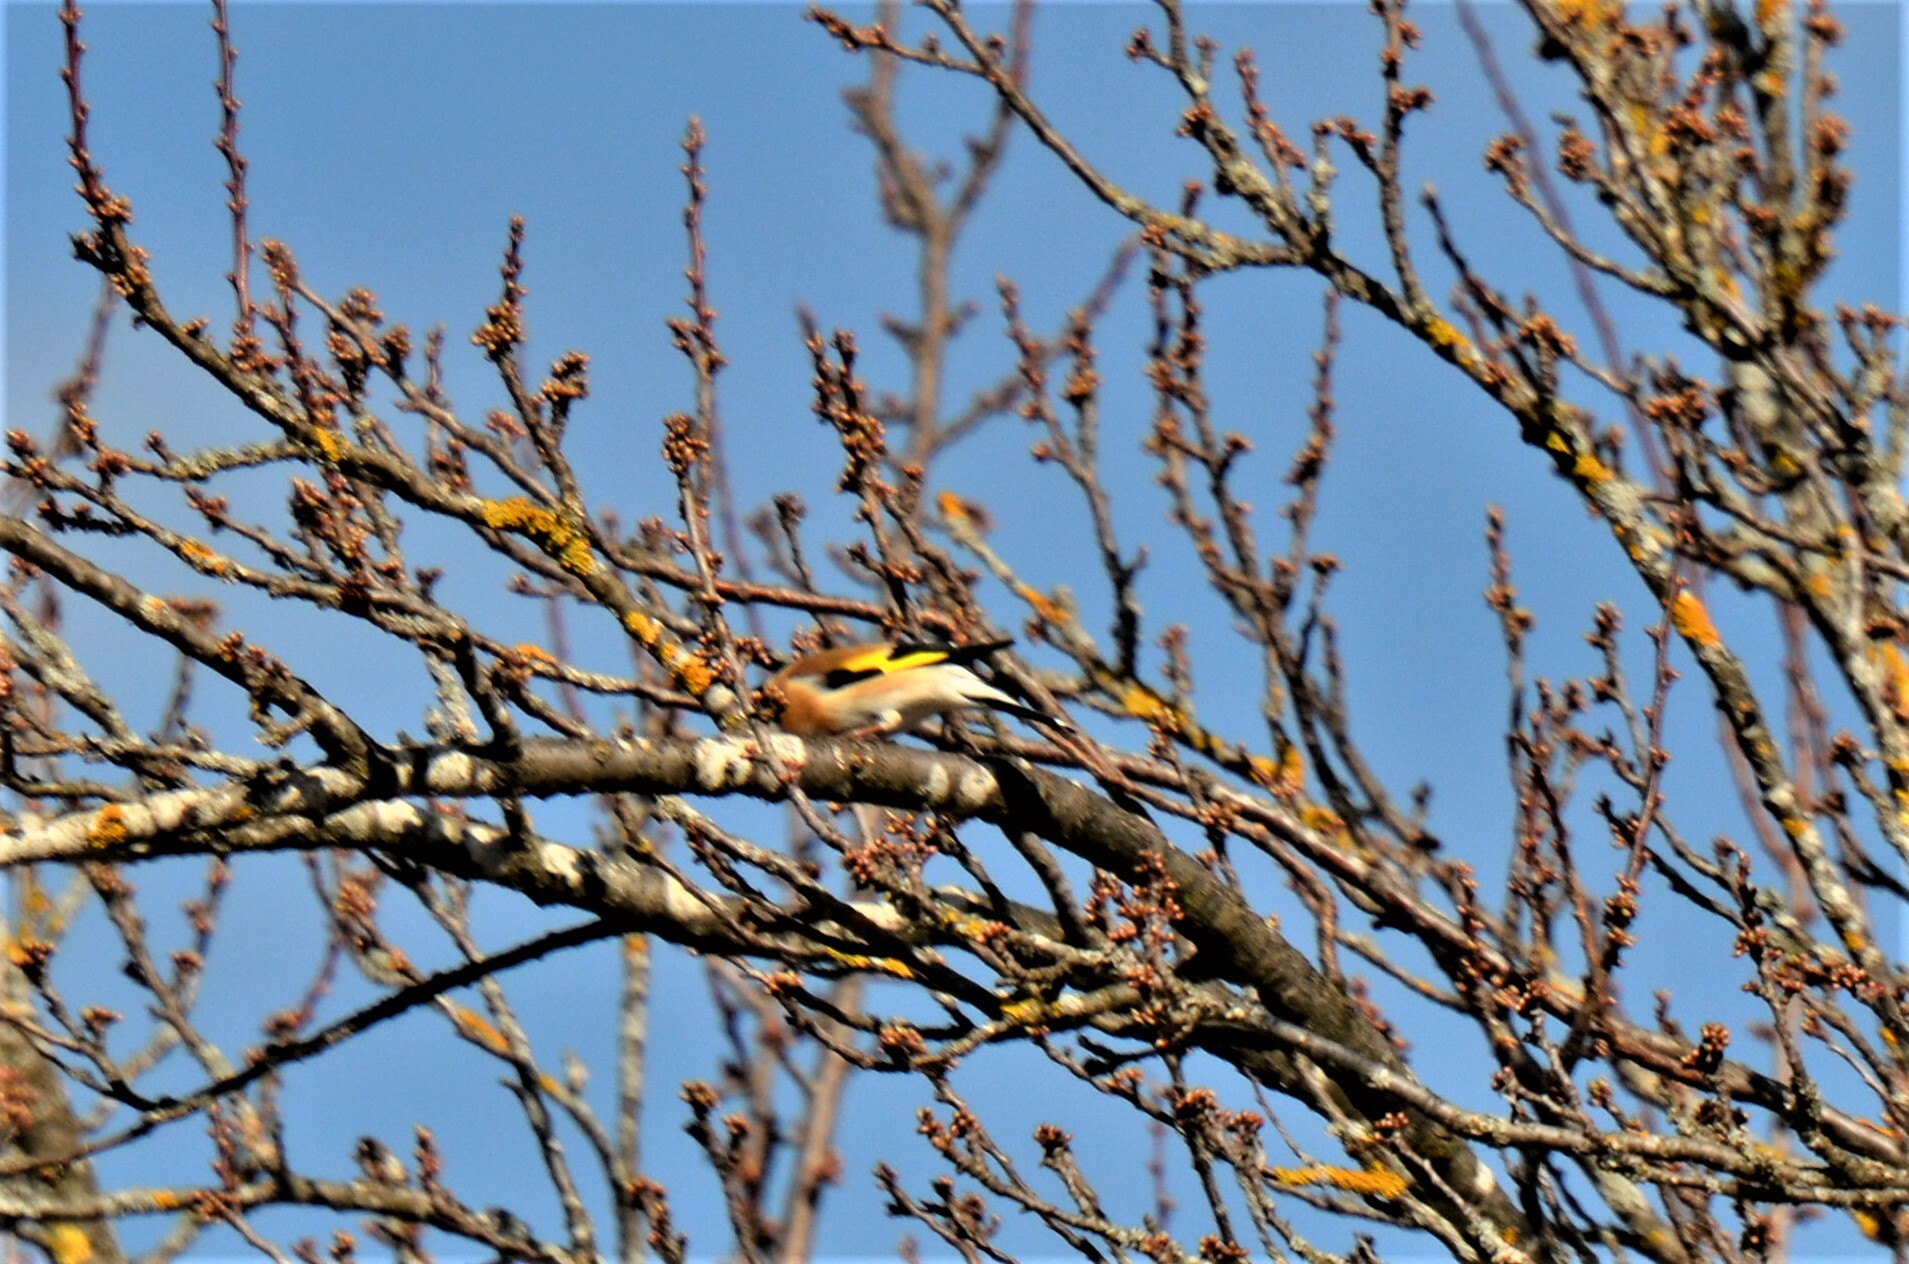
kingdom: Animalia
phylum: Chordata
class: Aves
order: Passeriformes
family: Fringillidae
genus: Carduelis
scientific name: Carduelis carduelis
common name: European goldfinch
